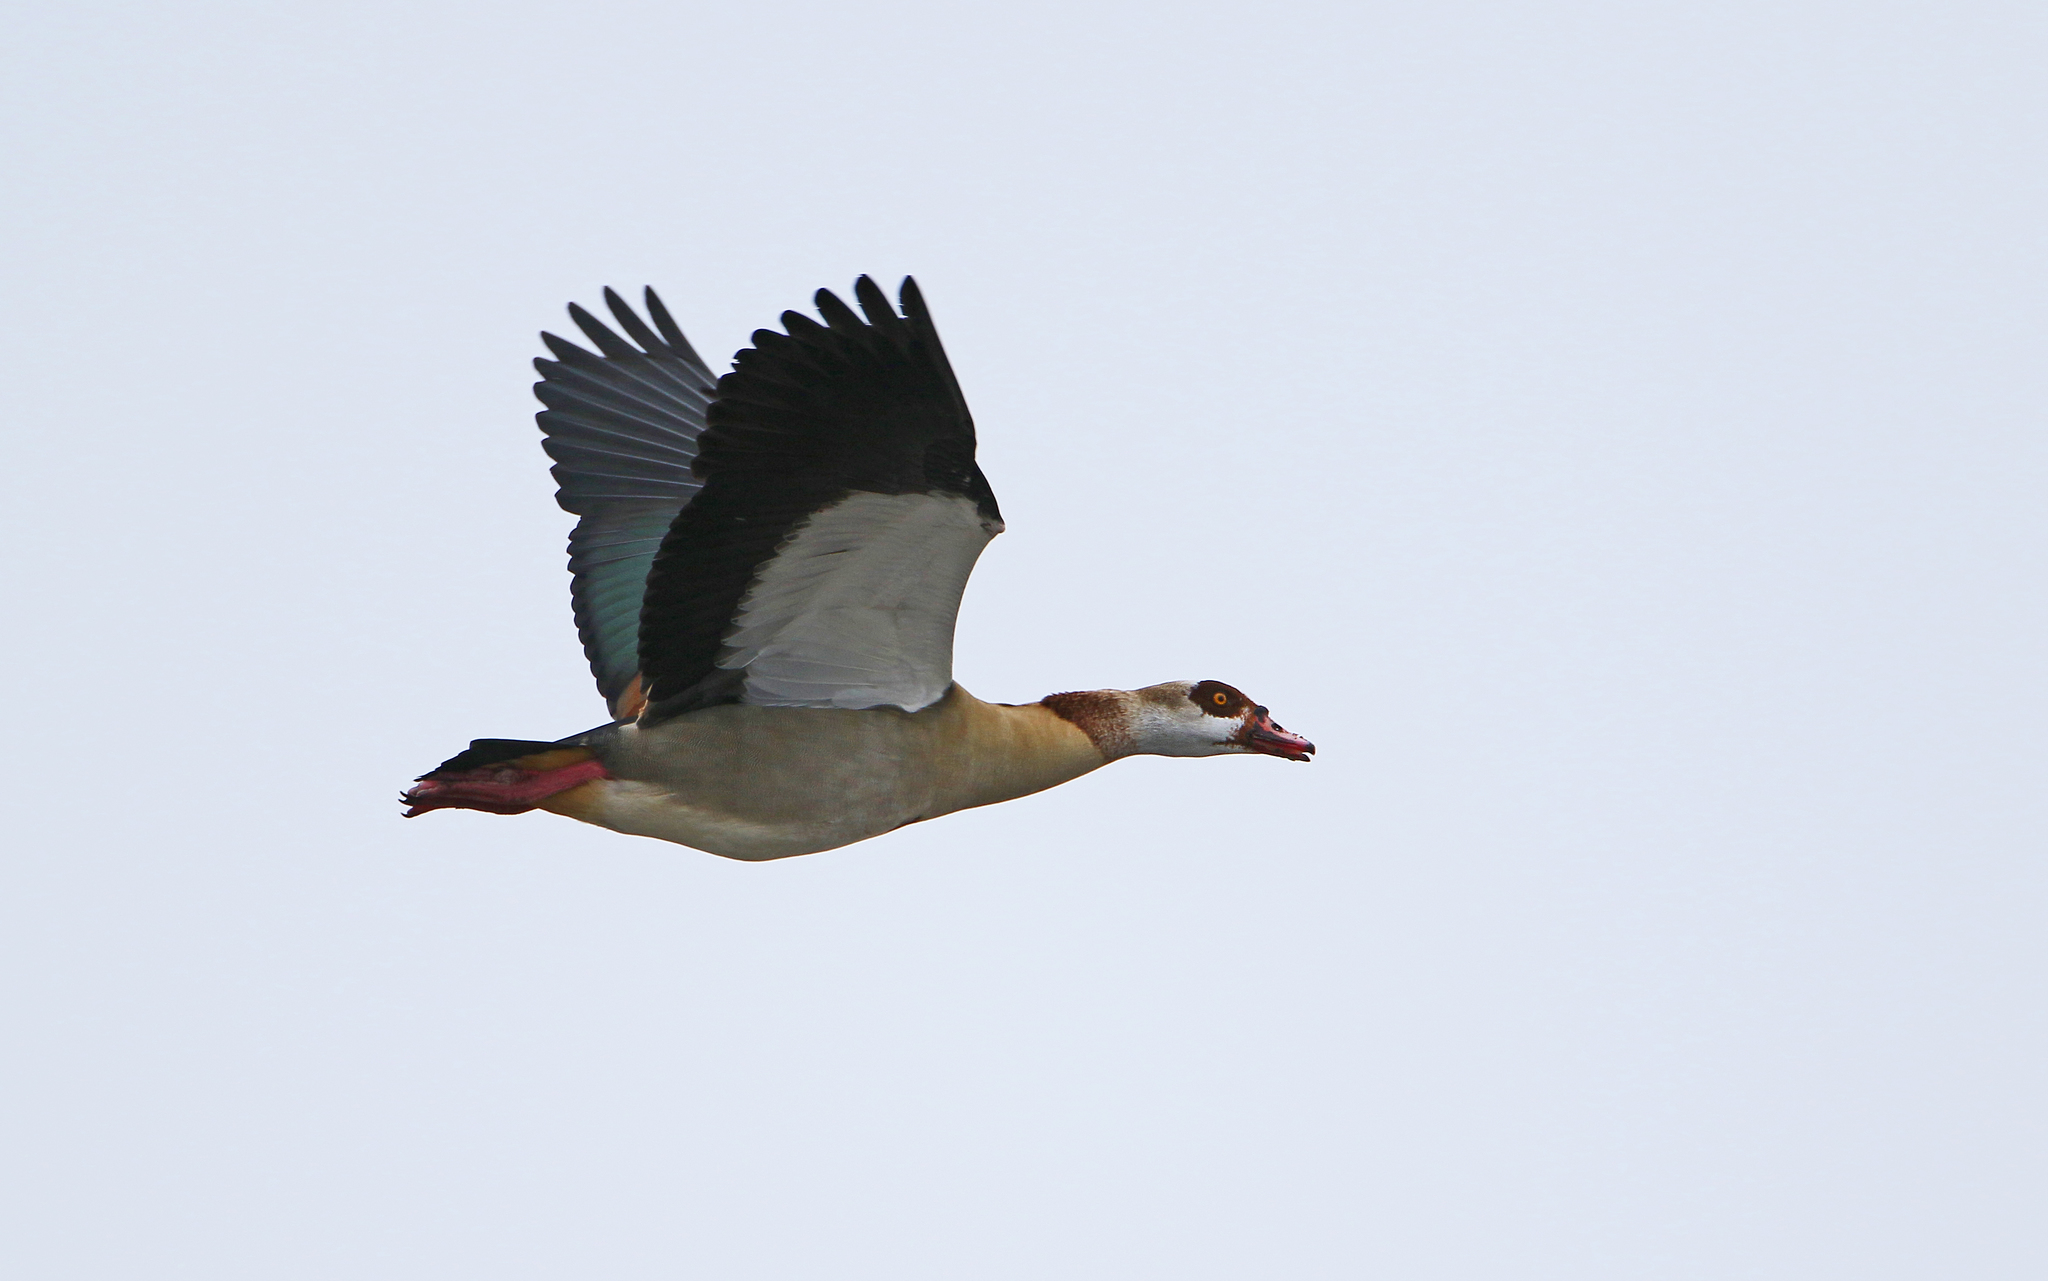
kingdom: Animalia
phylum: Chordata
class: Aves
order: Anseriformes
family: Anatidae
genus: Alopochen
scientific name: Alopochen aegyptiaca
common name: Egyptian goose
